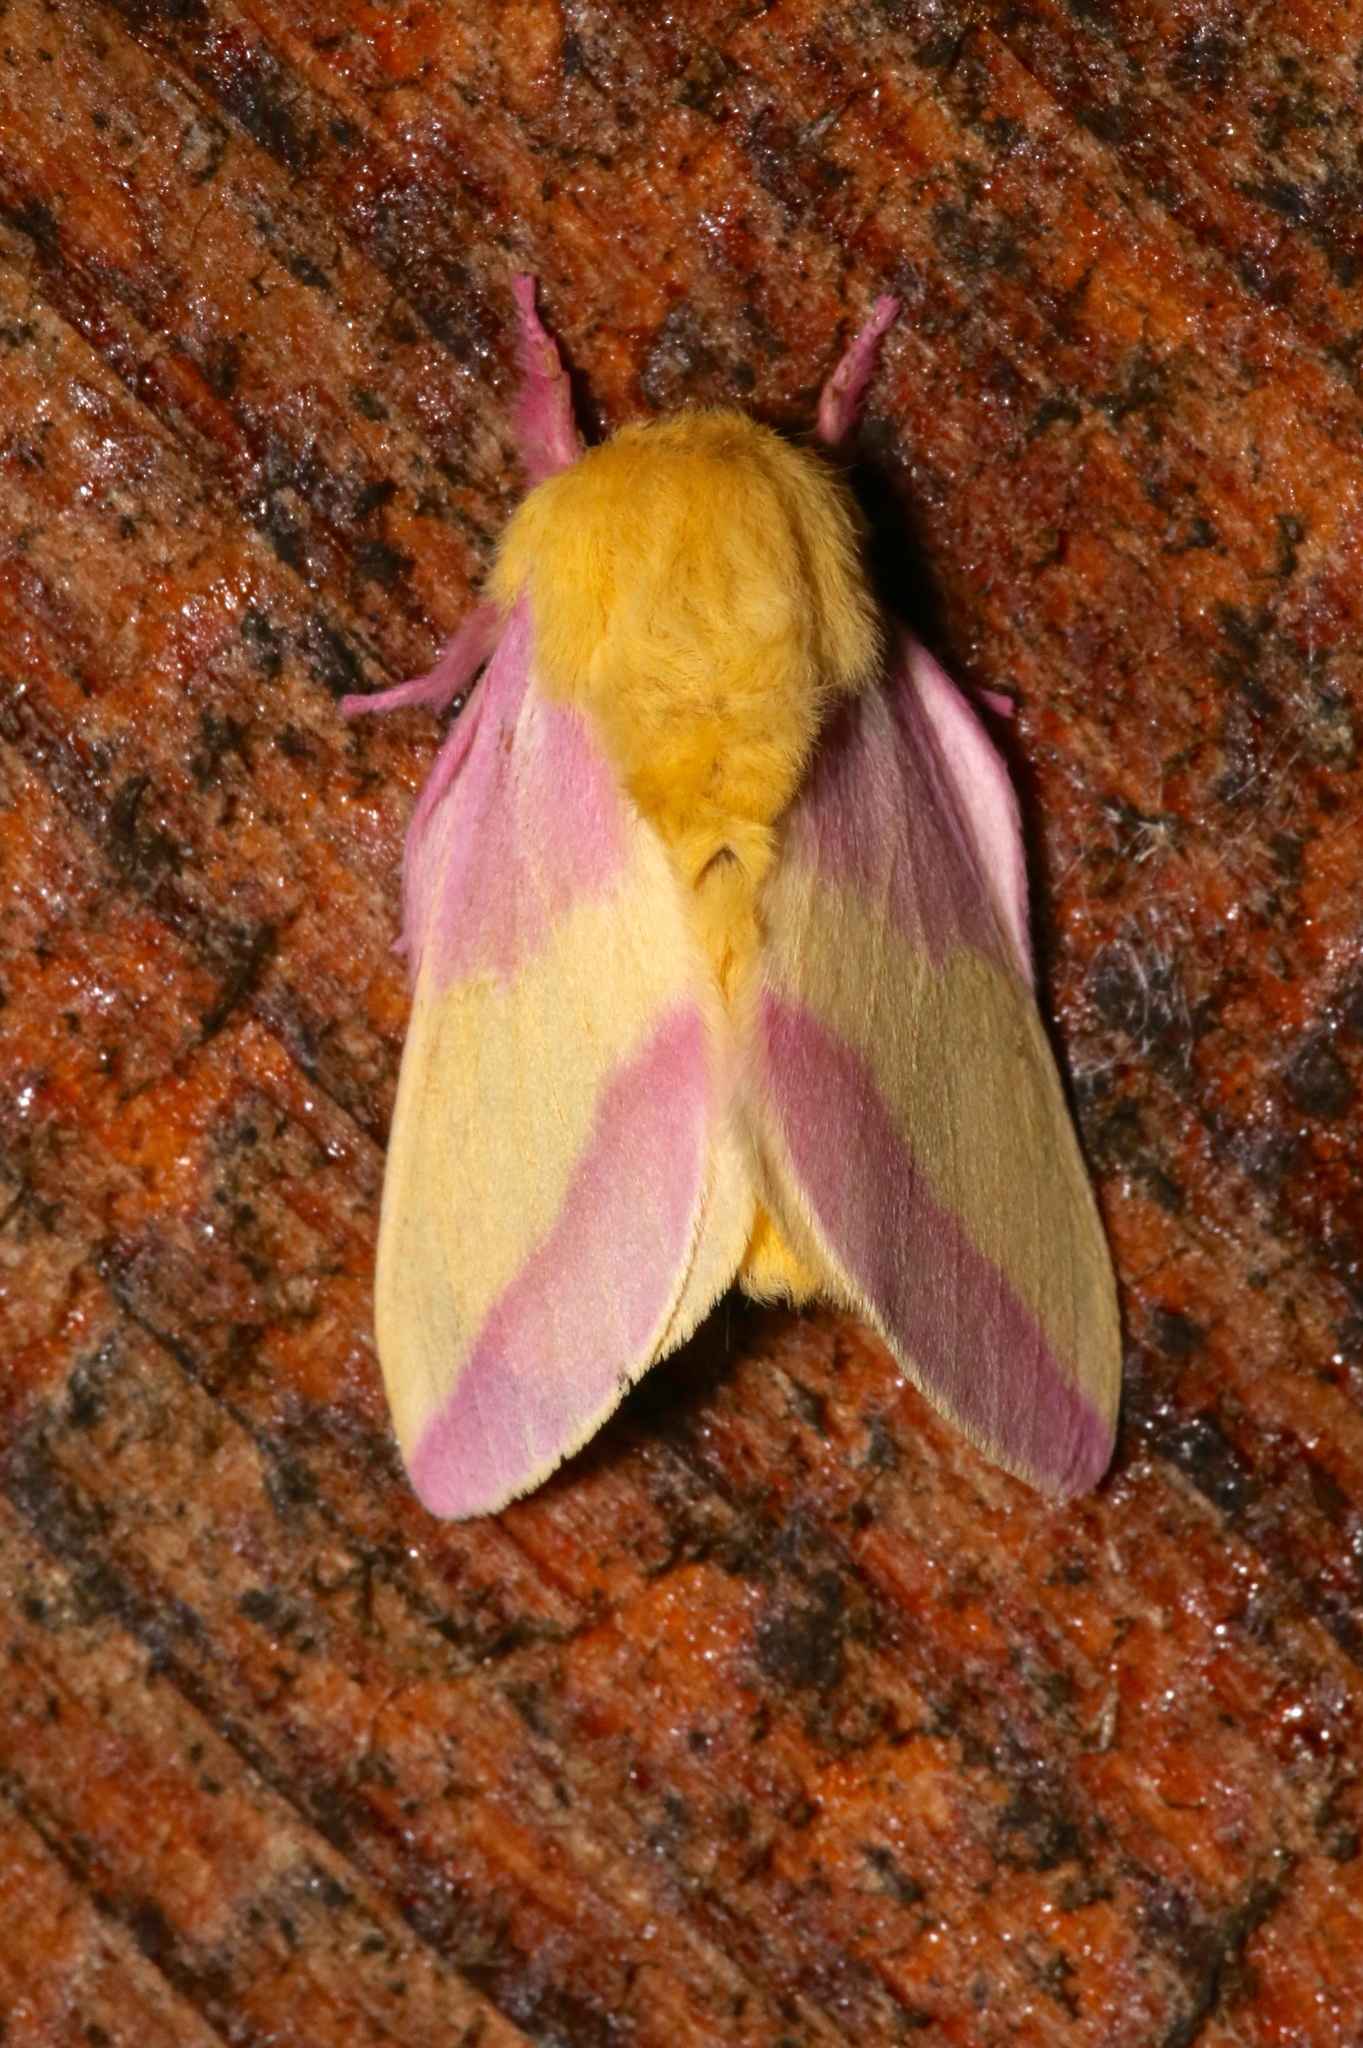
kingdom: Animalia
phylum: Arthropoda
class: Insecta
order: Lepidoptera
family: Saturniidae
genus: Dryocampa
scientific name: Dryocampa rubicunda
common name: Rosy maple moth
